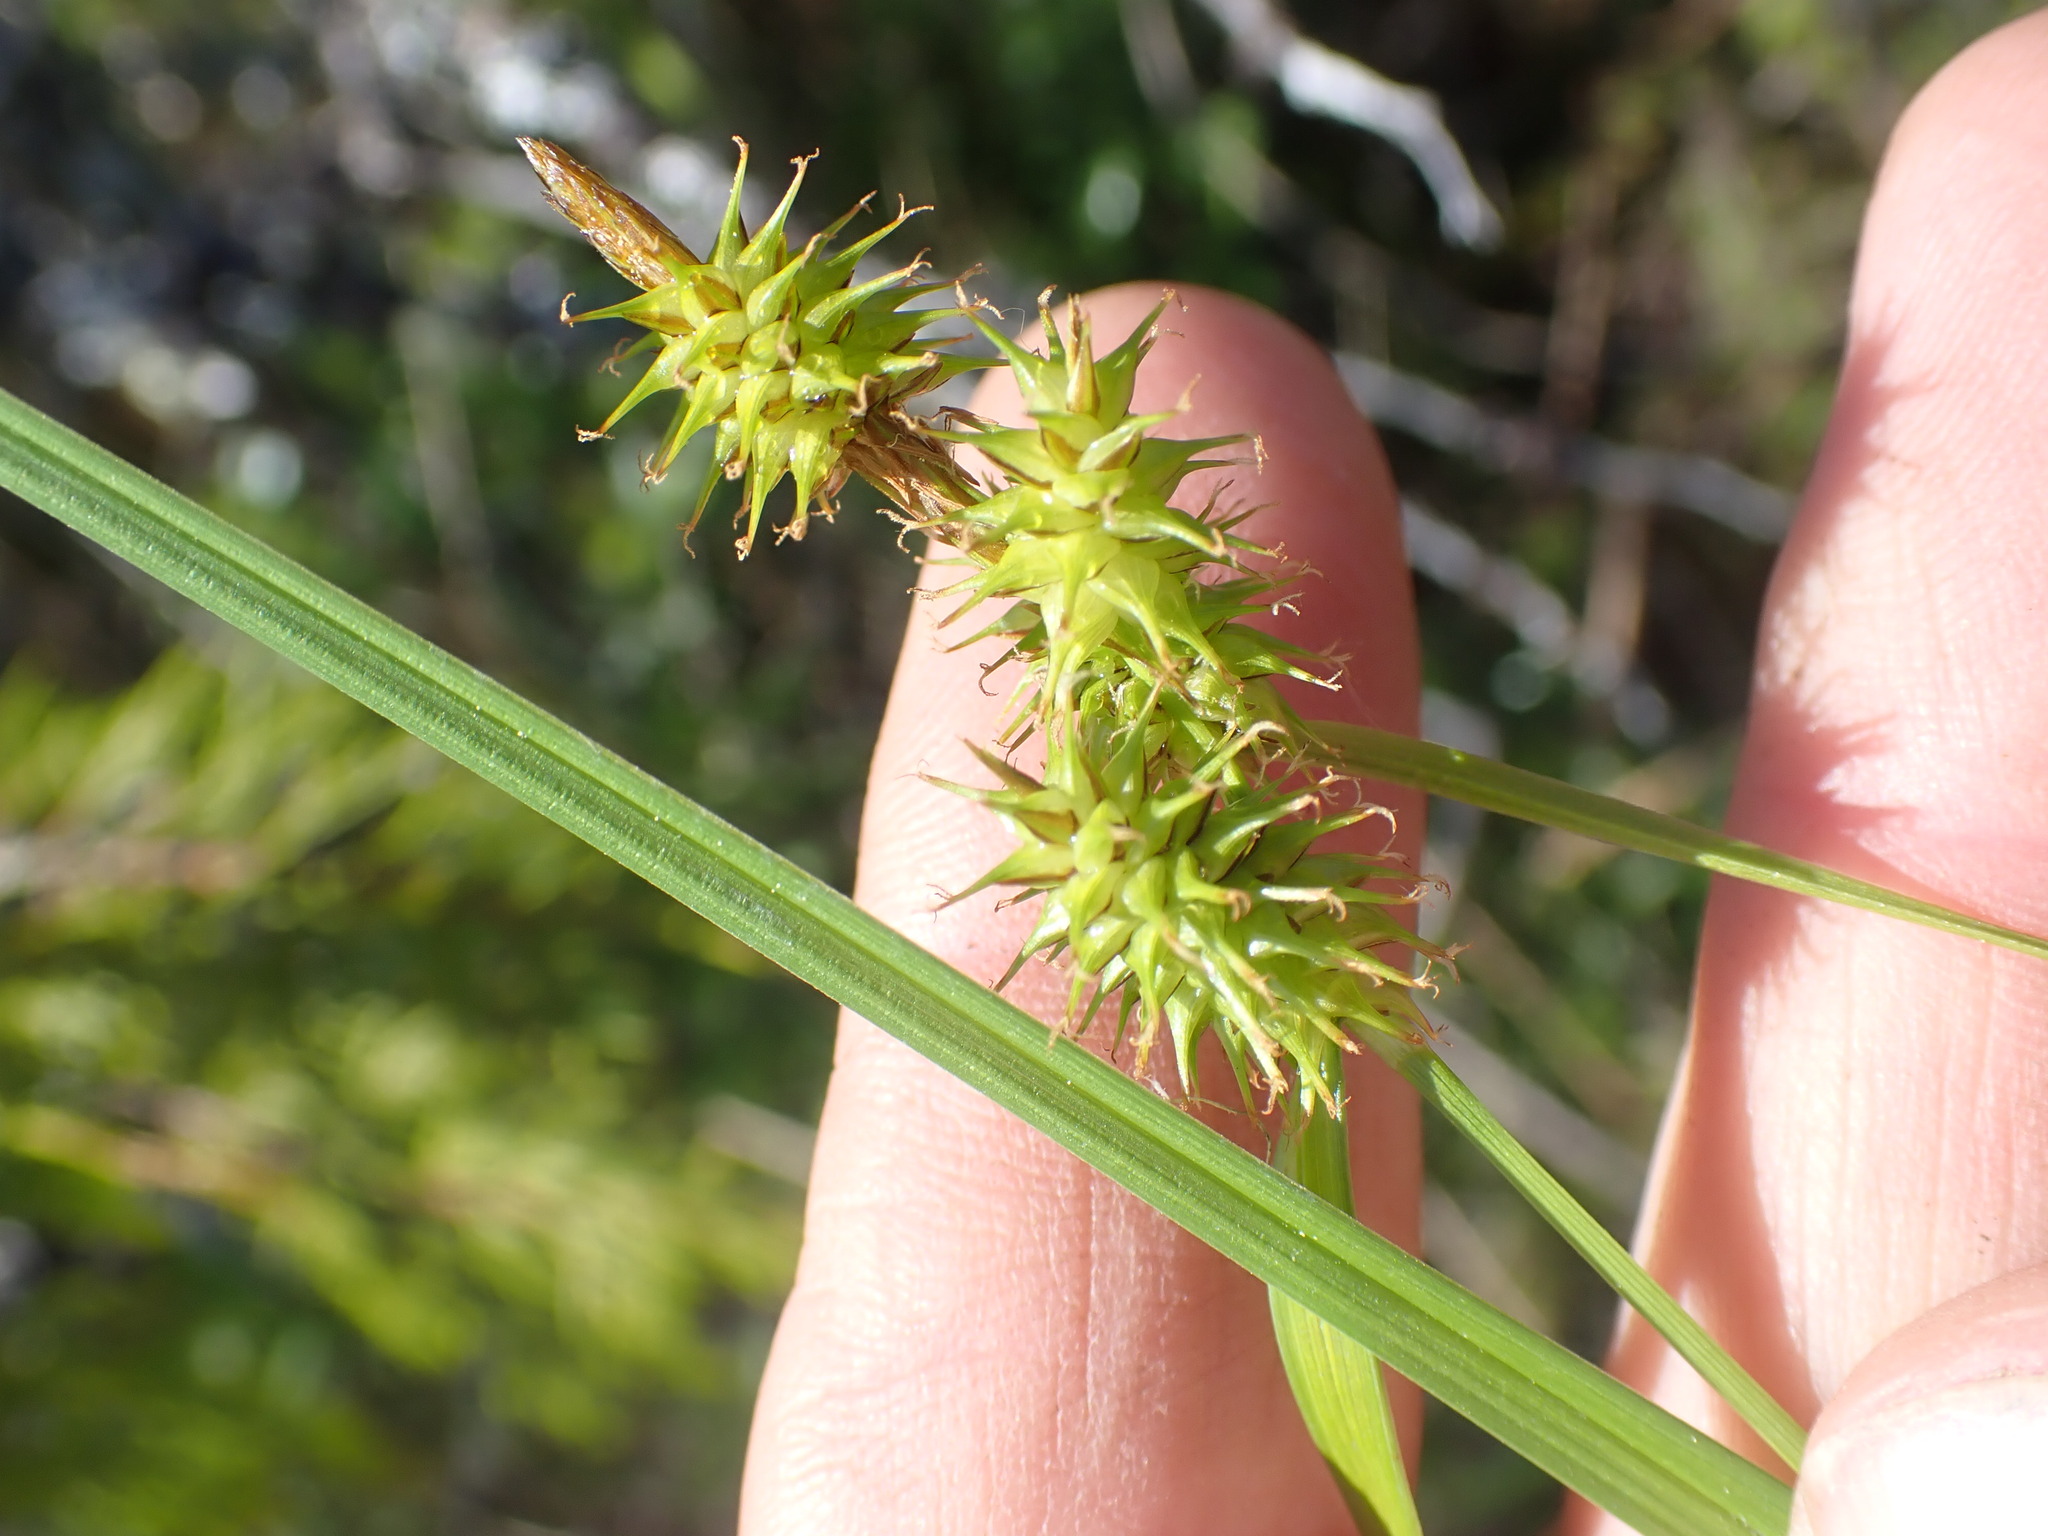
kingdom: Plantae
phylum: Tracheophyta
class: Liliopsida
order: Poales
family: Cyperaceae
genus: Carex
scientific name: Carex flava
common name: Large yellow-sedge
